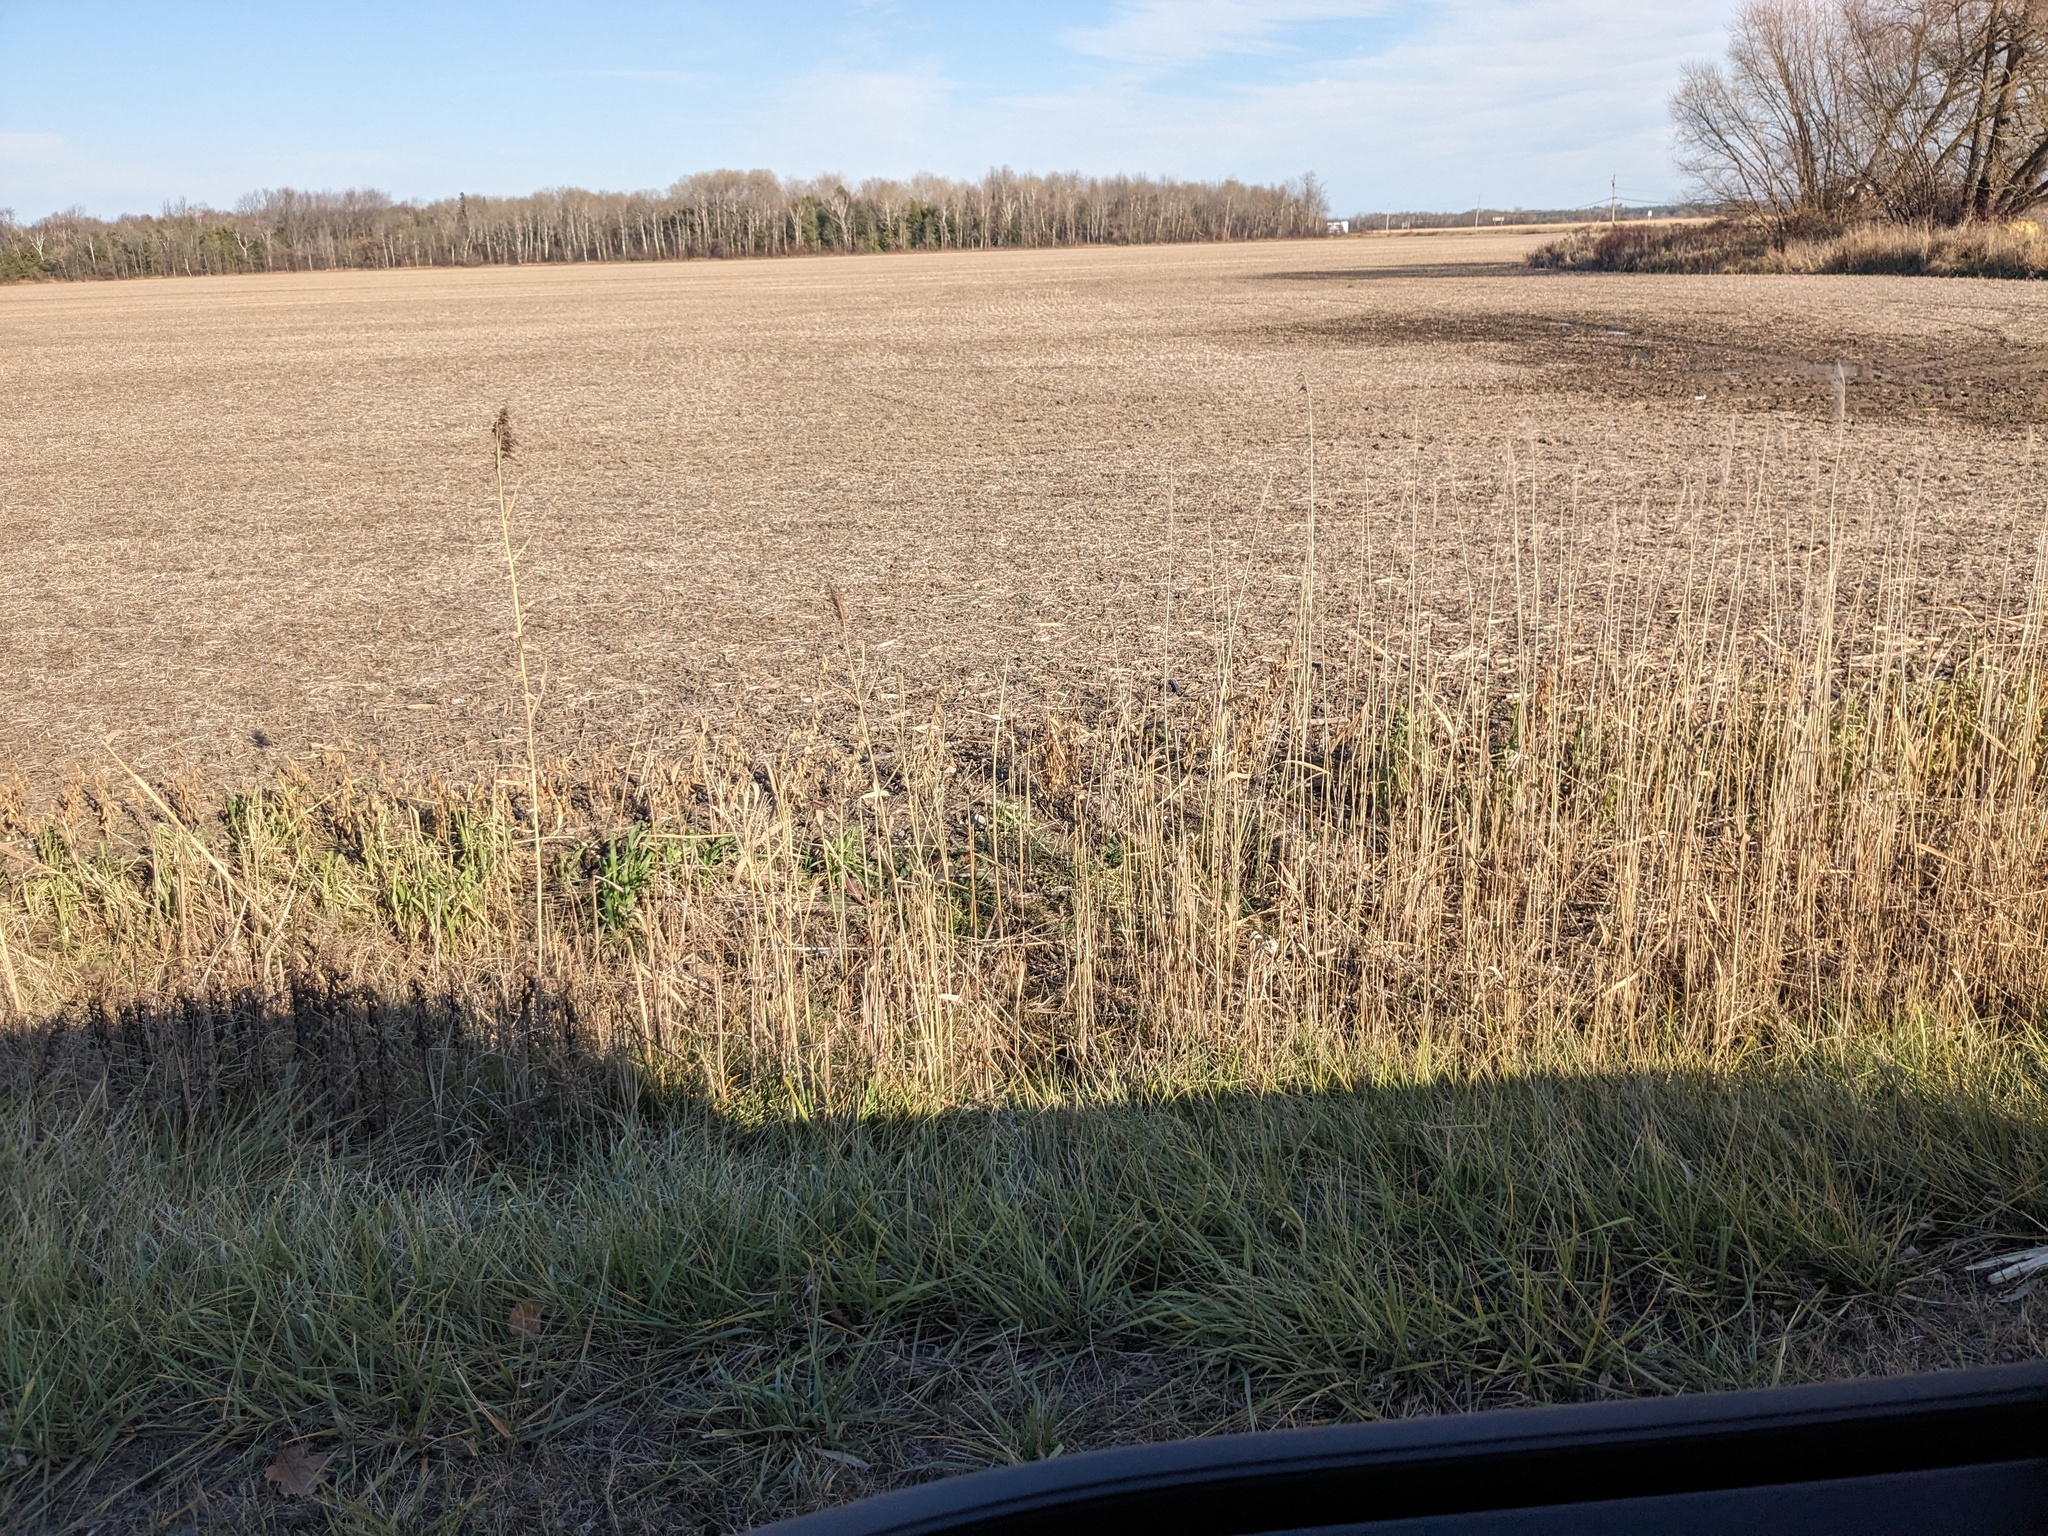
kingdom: Plantae
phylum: Tracheophyta
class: Liliopsida
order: Poales
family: Poaceae
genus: Phragmites
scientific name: Phragmites australis
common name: Common reed
